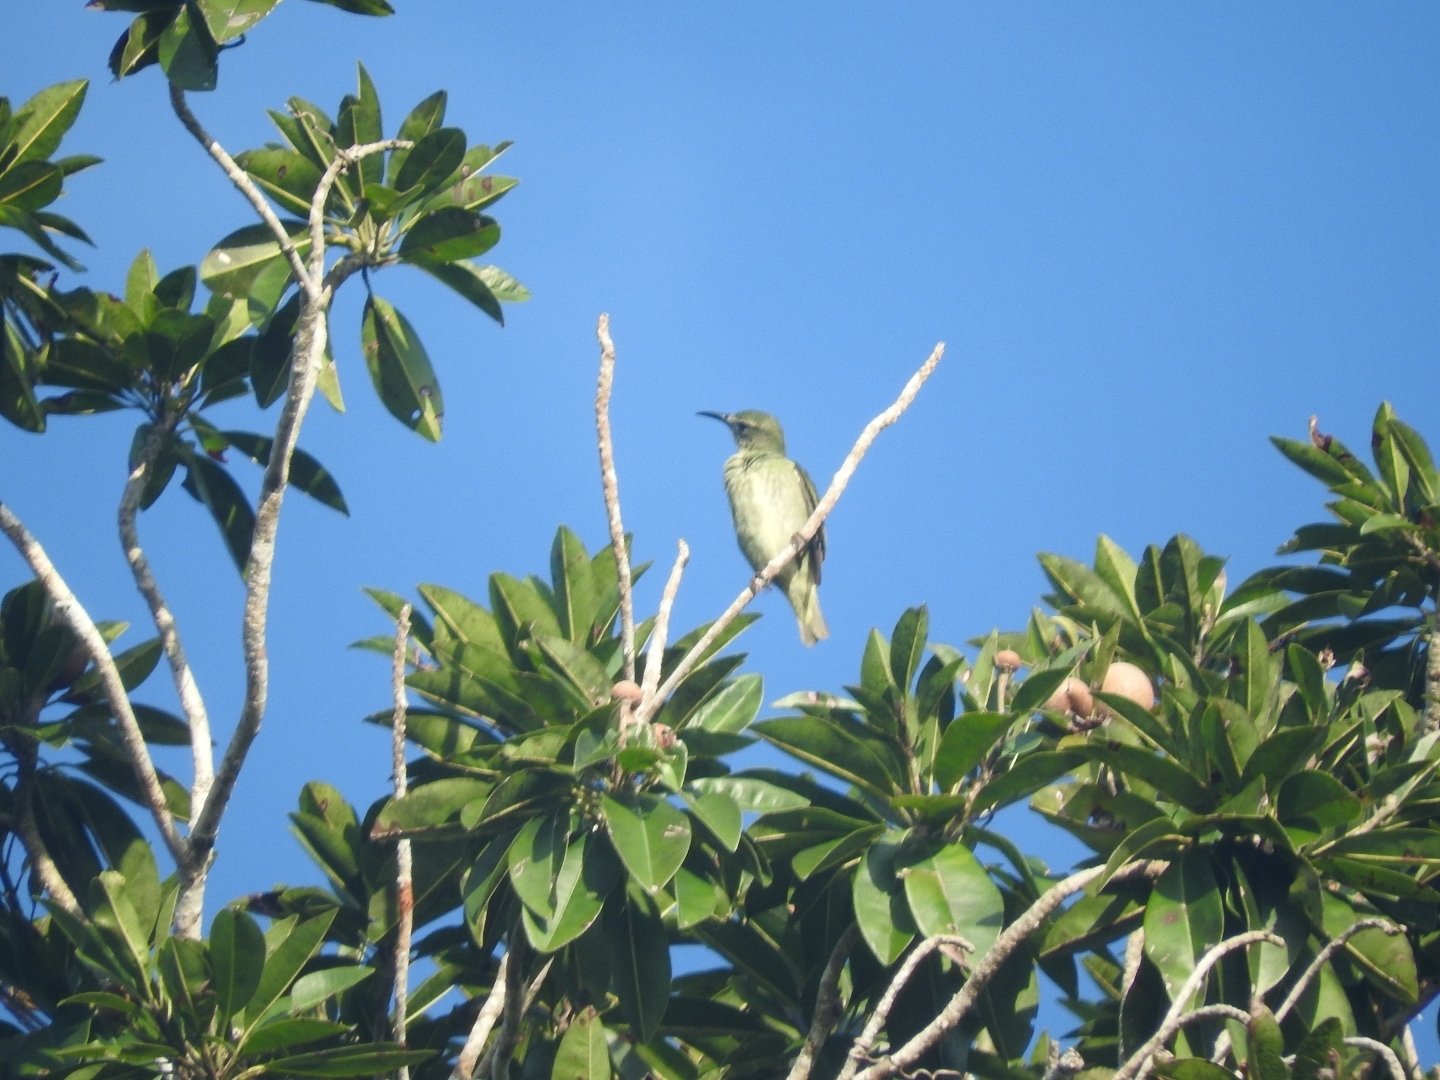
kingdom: Animalia
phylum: Chordata
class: Aves
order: Passeriformes
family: Thraupidae
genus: Cyanerpes
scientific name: Cyanerpes cyaneus
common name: Red-legged honeycreeper
